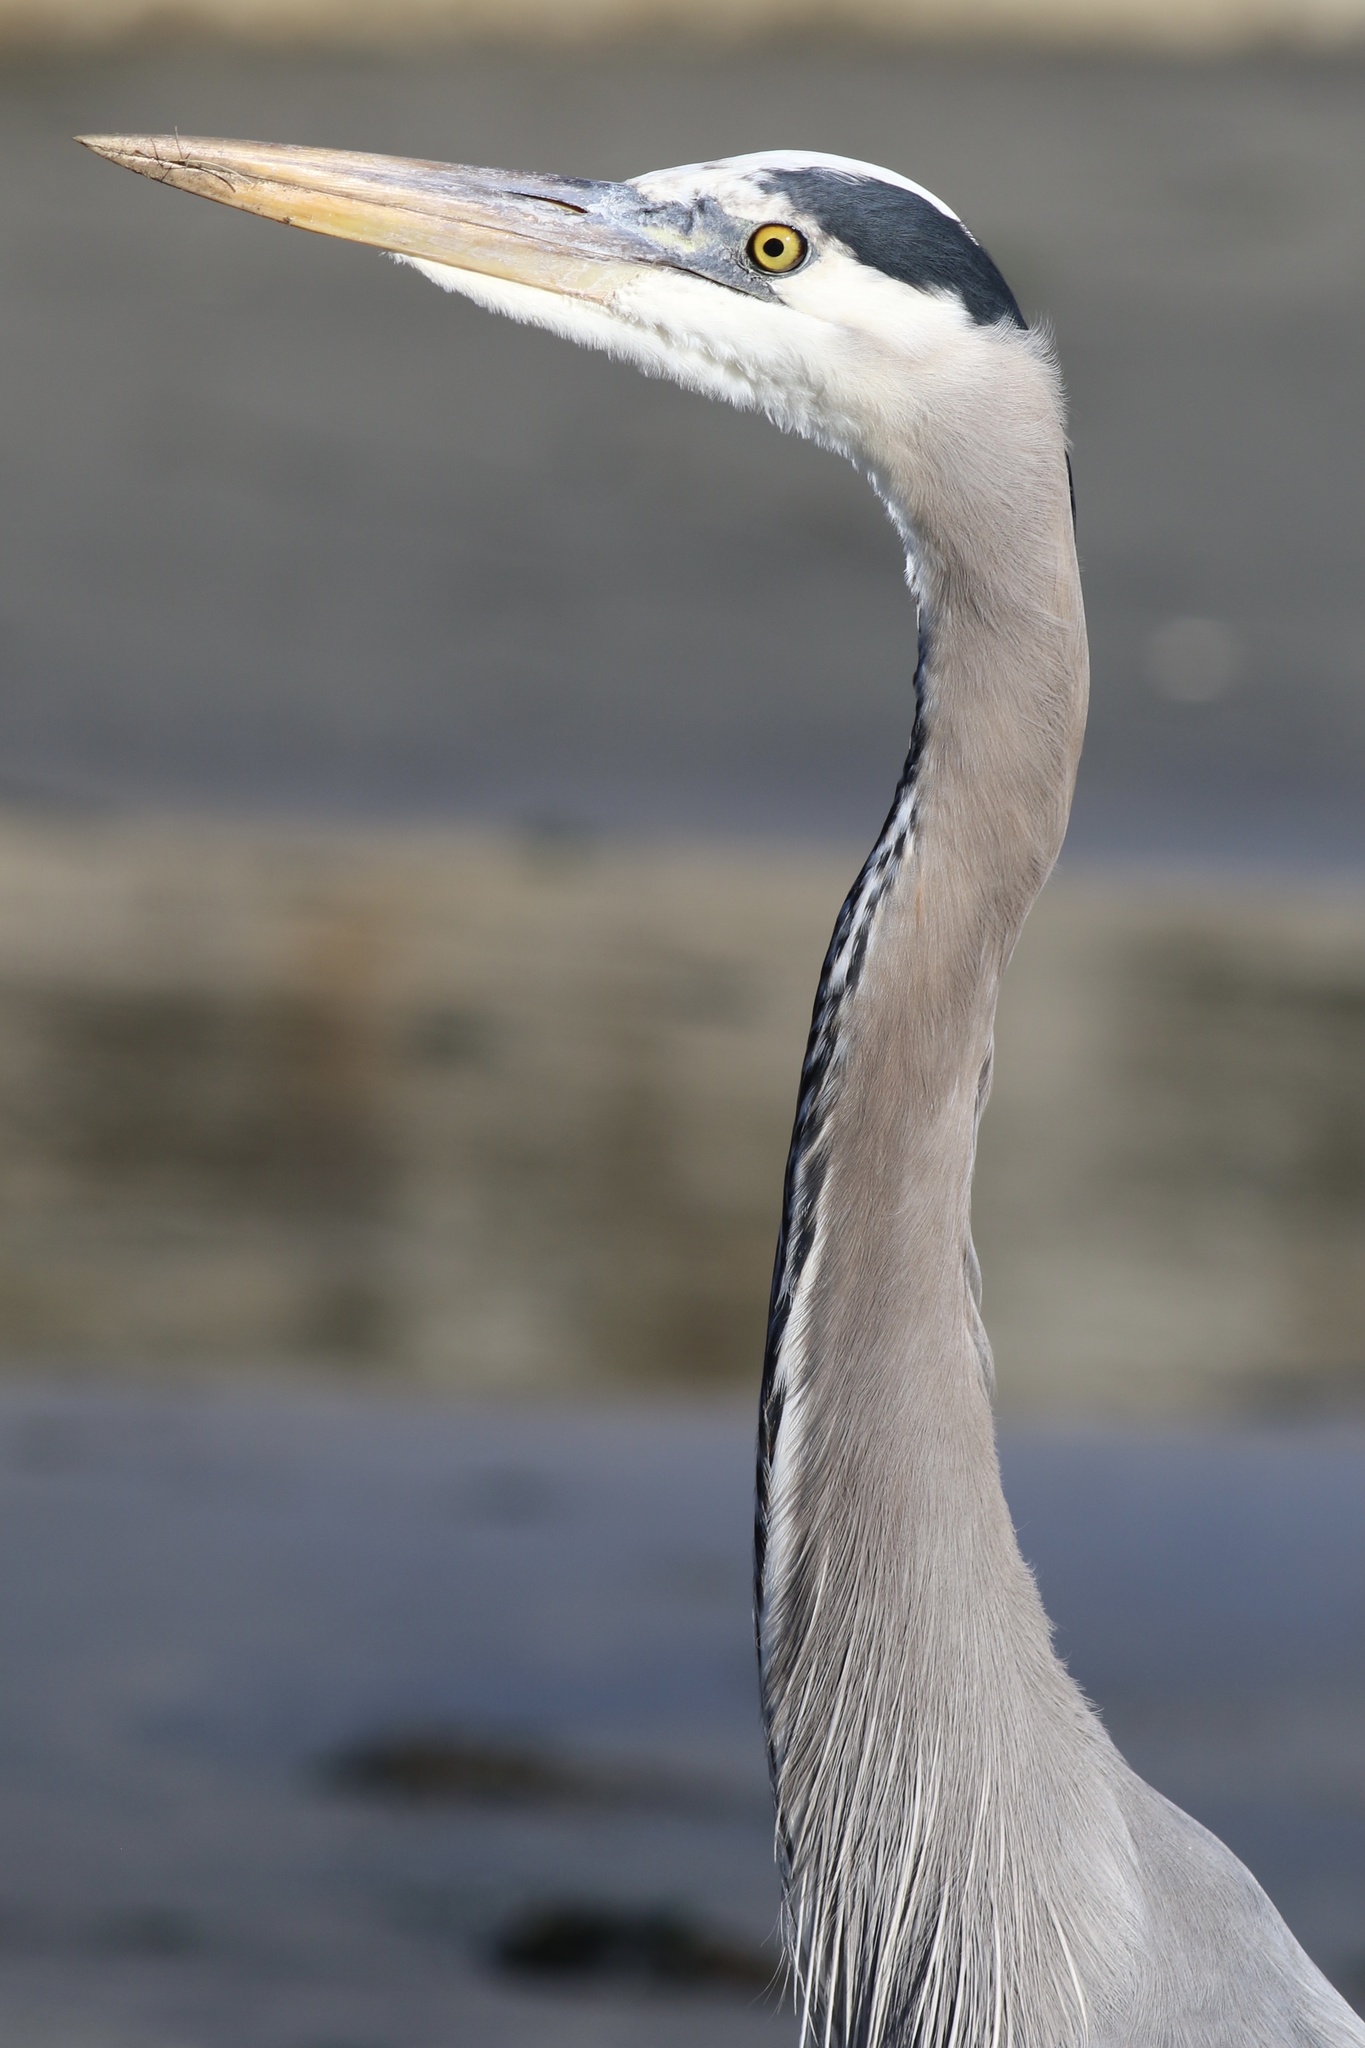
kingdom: Animalia
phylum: Chordata
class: Aves
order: Pelecaniformes
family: Ardeidae
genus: Ardea
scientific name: Ardea herodias
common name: Great blue heron
